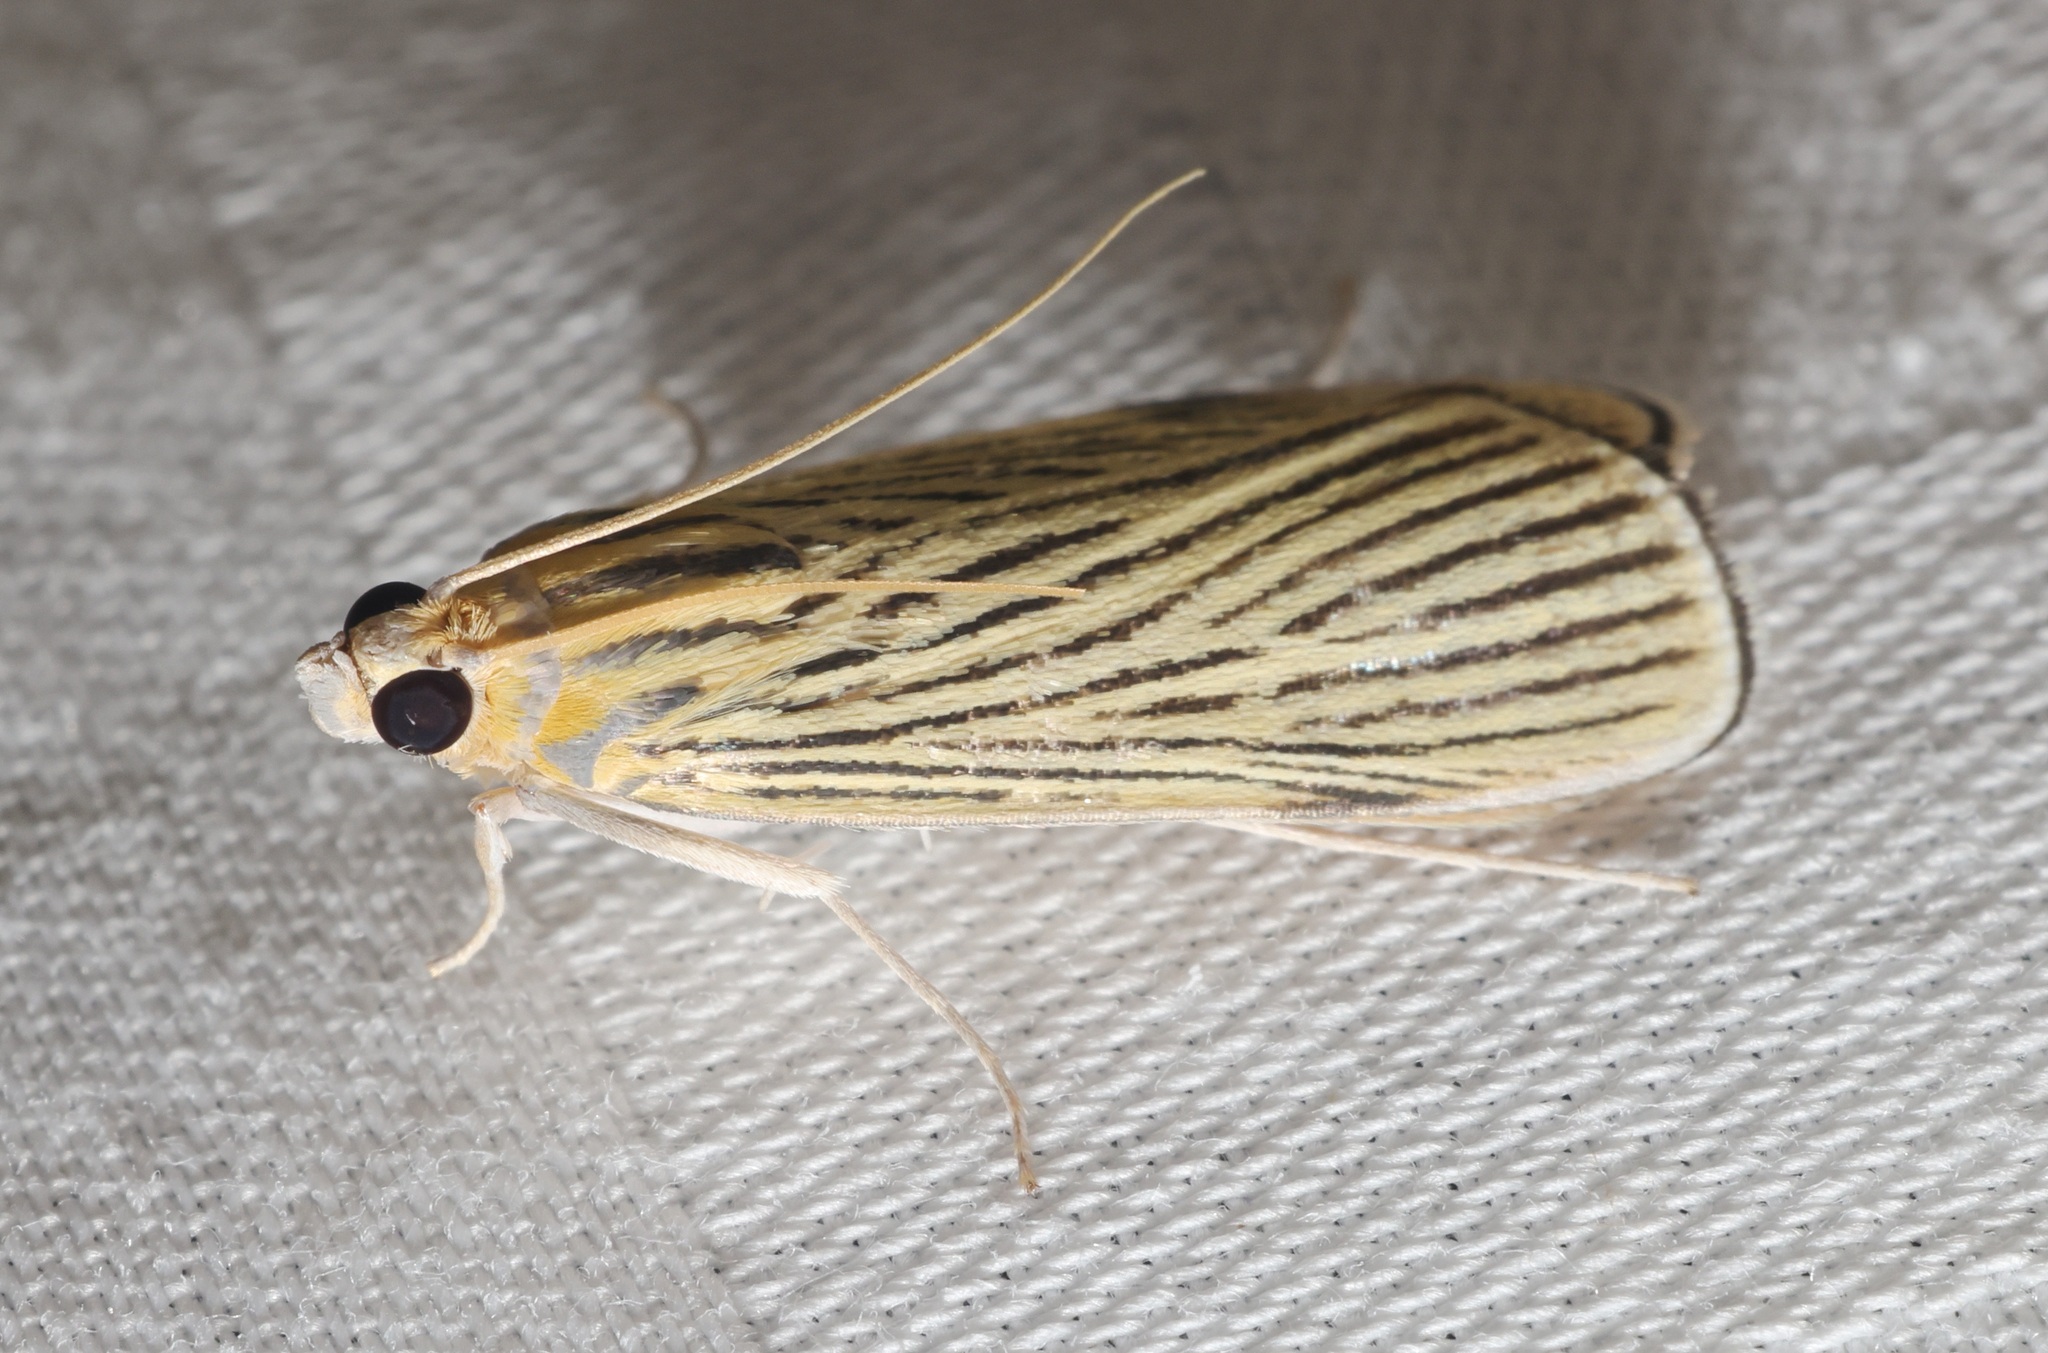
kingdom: Animalia
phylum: Arthropoda
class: Insecta
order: Lepidoptera
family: Crambidae
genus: Tyspanodes
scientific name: Tyspanodes linealis
